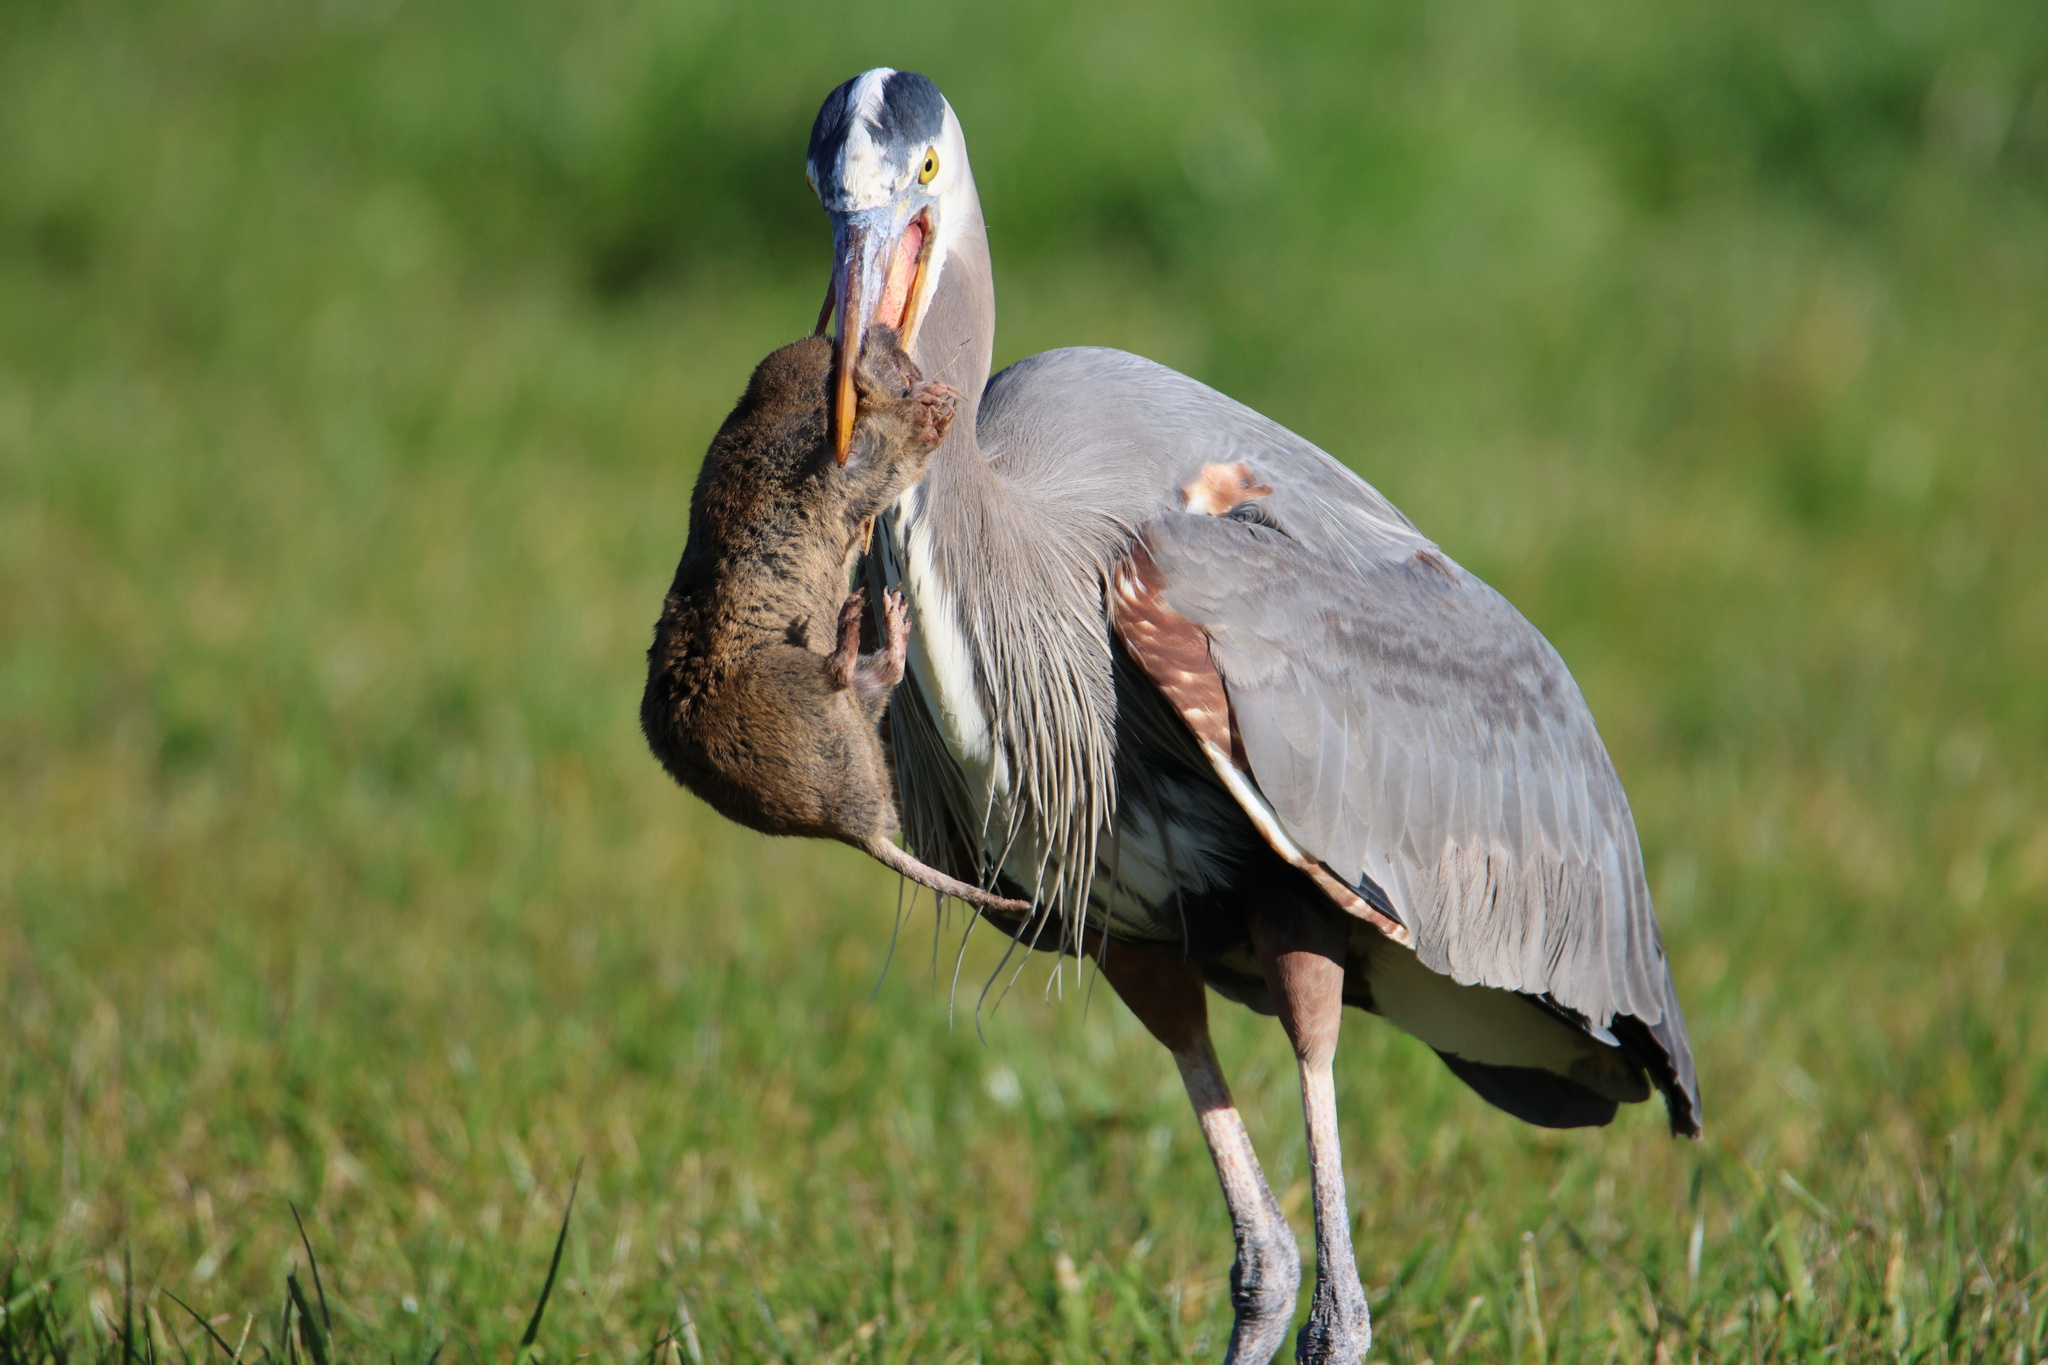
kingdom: Animalia
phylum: Chordata
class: Aves
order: Pelecaniformes
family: Ardeidae
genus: Ardea
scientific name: Ardea herodias
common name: Great blue heron
